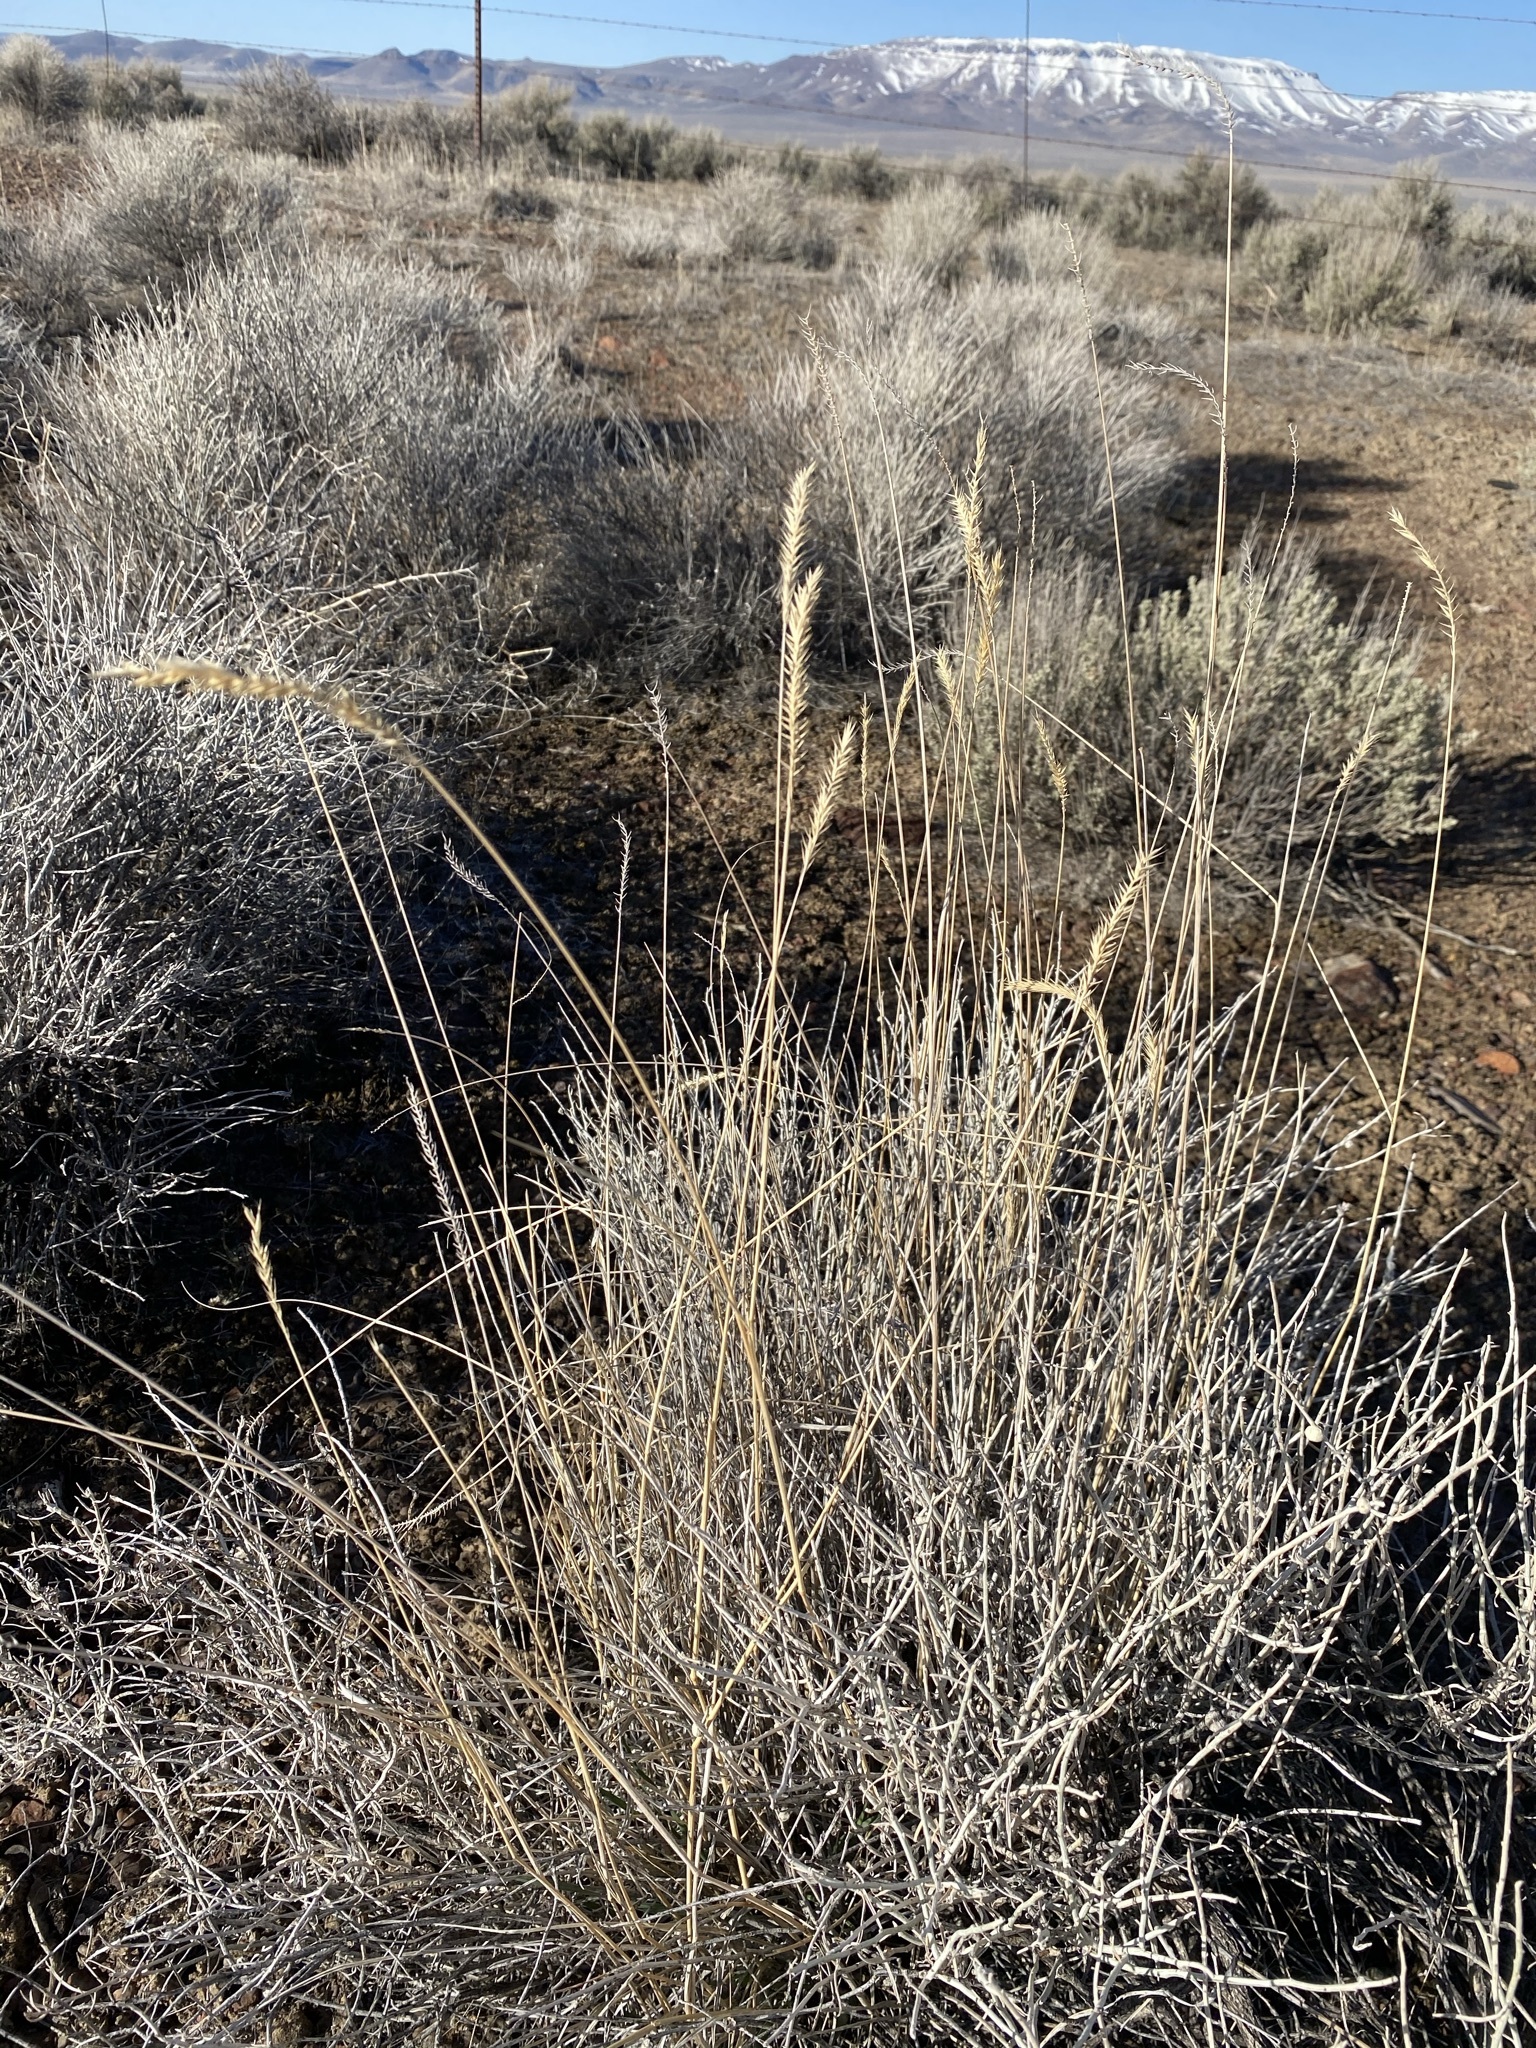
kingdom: Plantae
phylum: Tracheophyta
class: Liliopsida
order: Poales
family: Poaceae
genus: Agropyron
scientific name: Agropyron cristatum
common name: Crested wheatgrass
